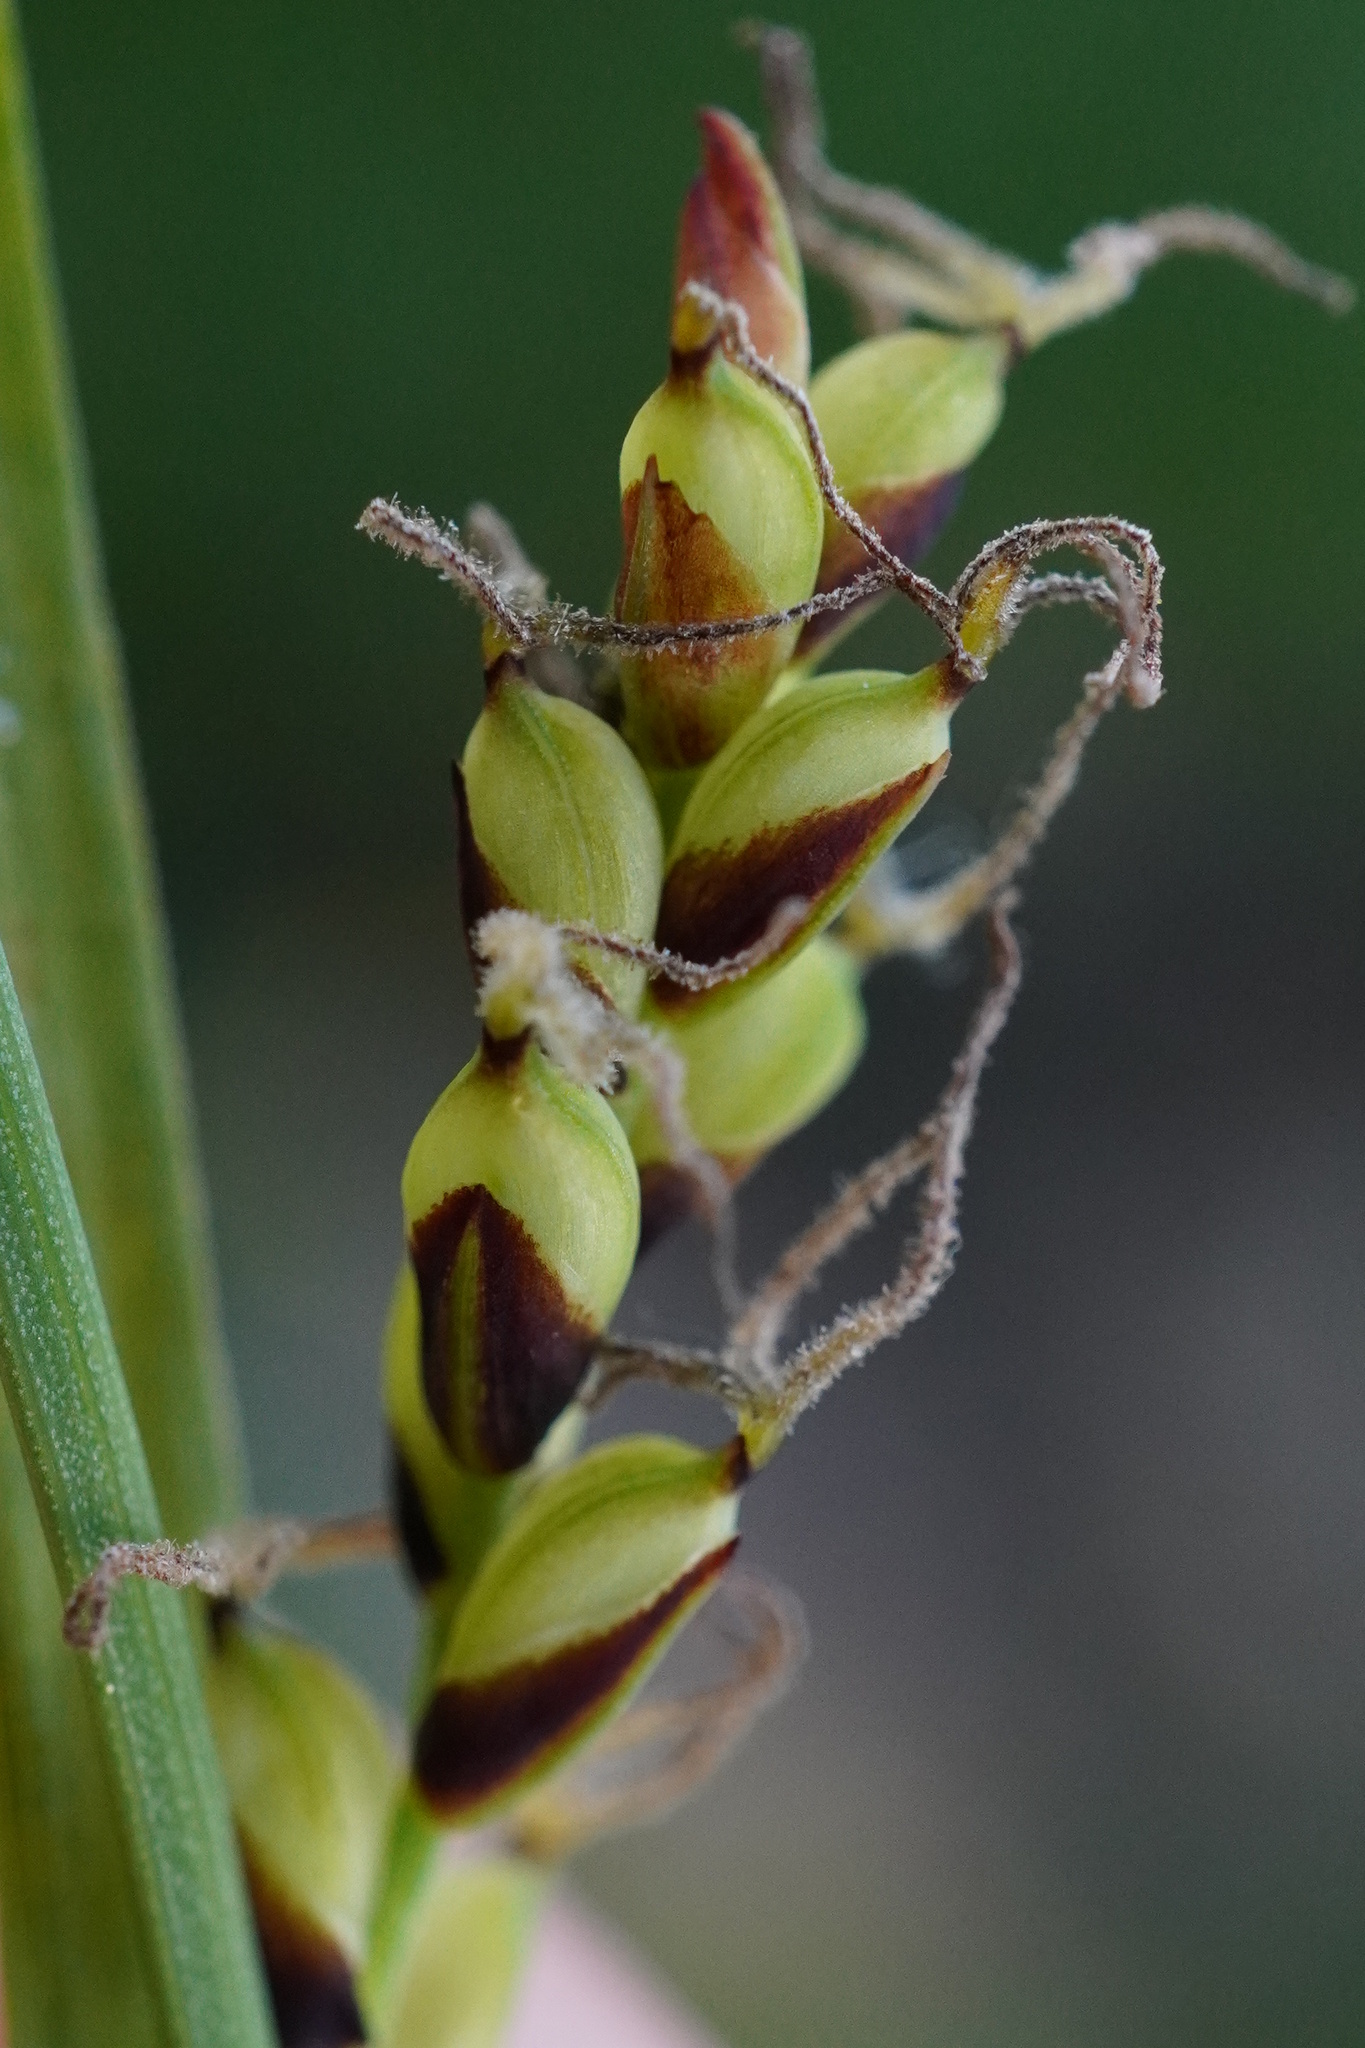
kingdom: Plantae
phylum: Tracheophyta
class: Liliopsida
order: Poales
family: Cyperaceae
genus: Carex
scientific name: Carex panicea
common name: Carnation sedge
